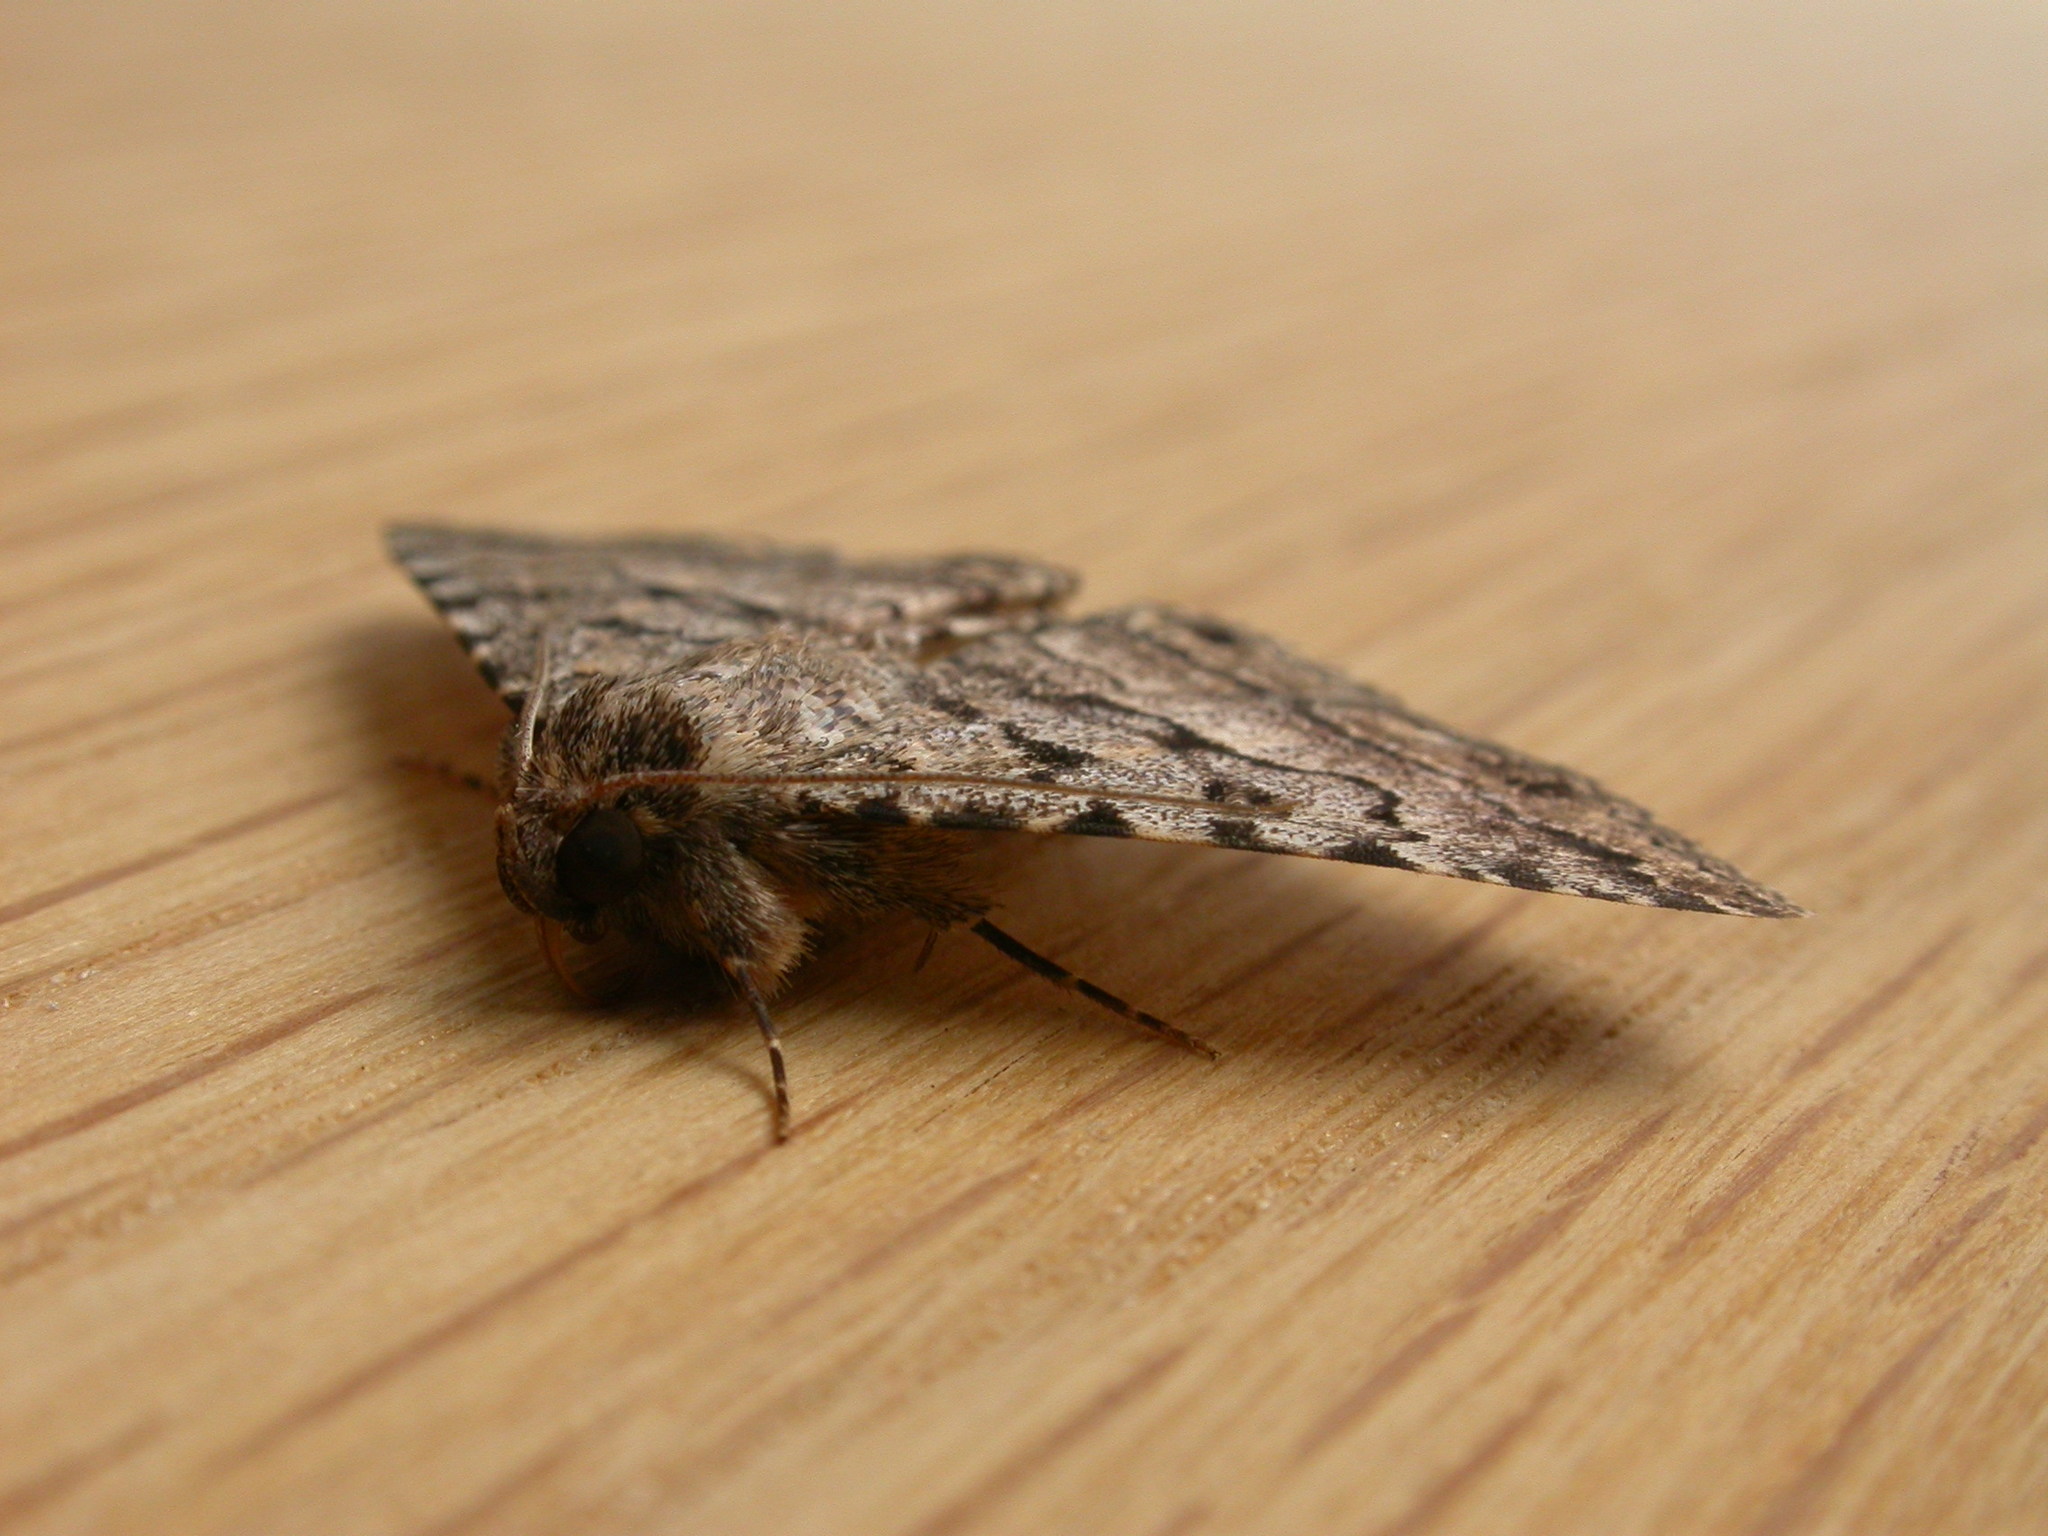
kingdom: Animalia
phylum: Arthropoda
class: Insecta
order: Lepidoptera
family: Erebidae
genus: Diatenes
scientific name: Diatenes aglossoides
